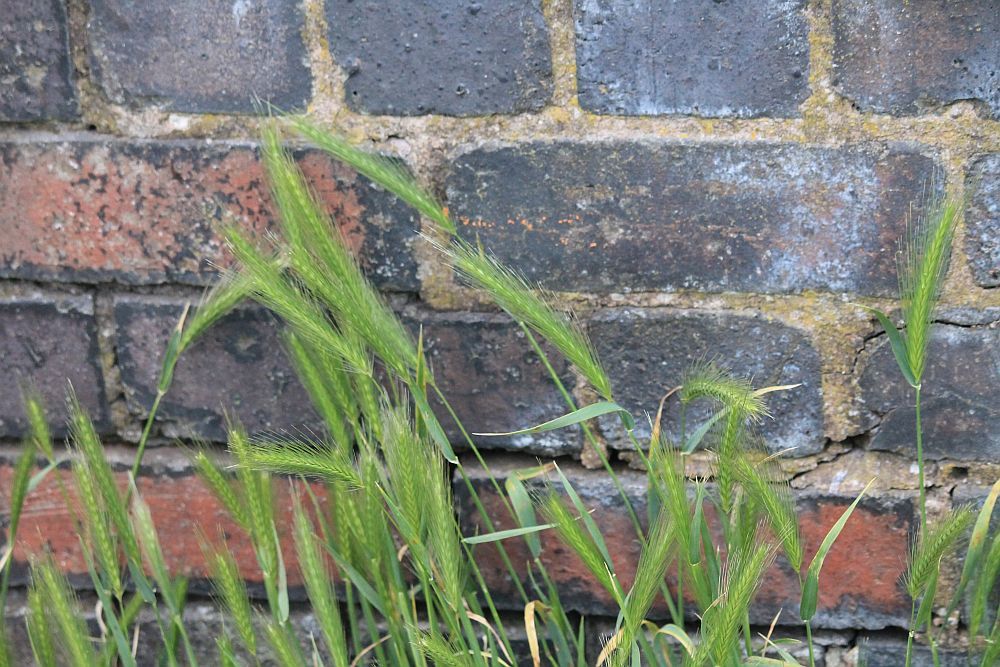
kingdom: Plantae
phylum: Tracheophyta
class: Liliopsida
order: Poales
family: Poaceae
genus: Hordeum
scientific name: Hordeum murinum
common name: Wall barley
